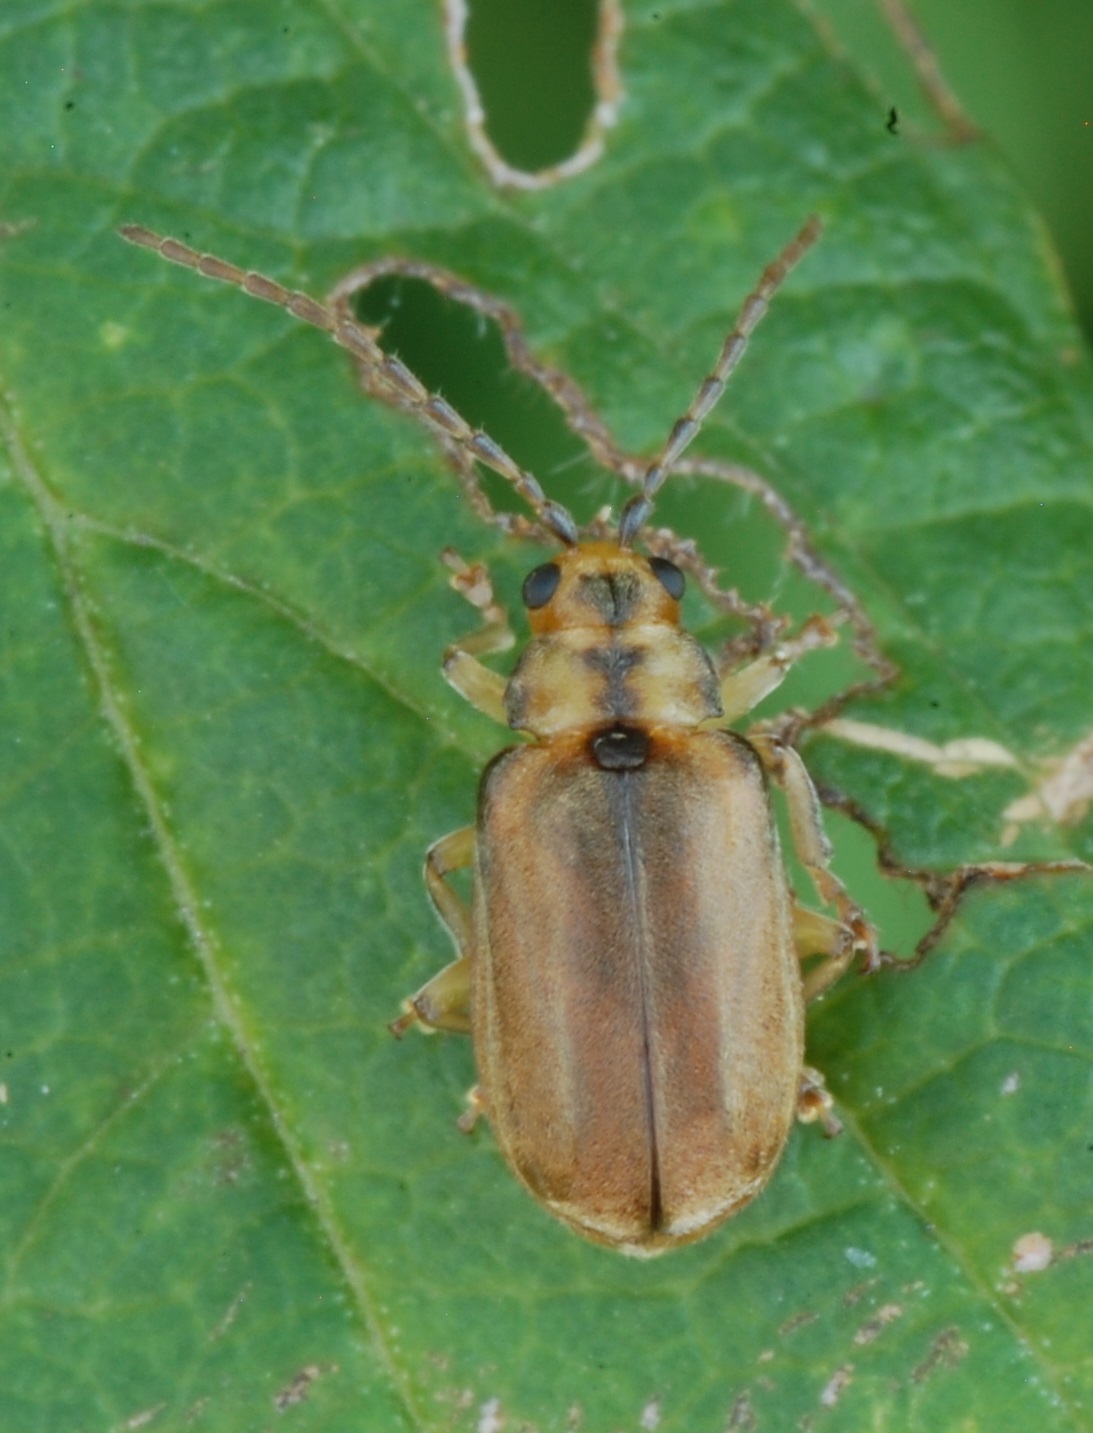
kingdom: Animalia
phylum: Arthropoda
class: Insecta
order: Coleoptera
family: Chrysomelidae
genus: Pyrrhalta
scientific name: Pyrrhalta viburni
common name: Guelder-rose leaf beetle
